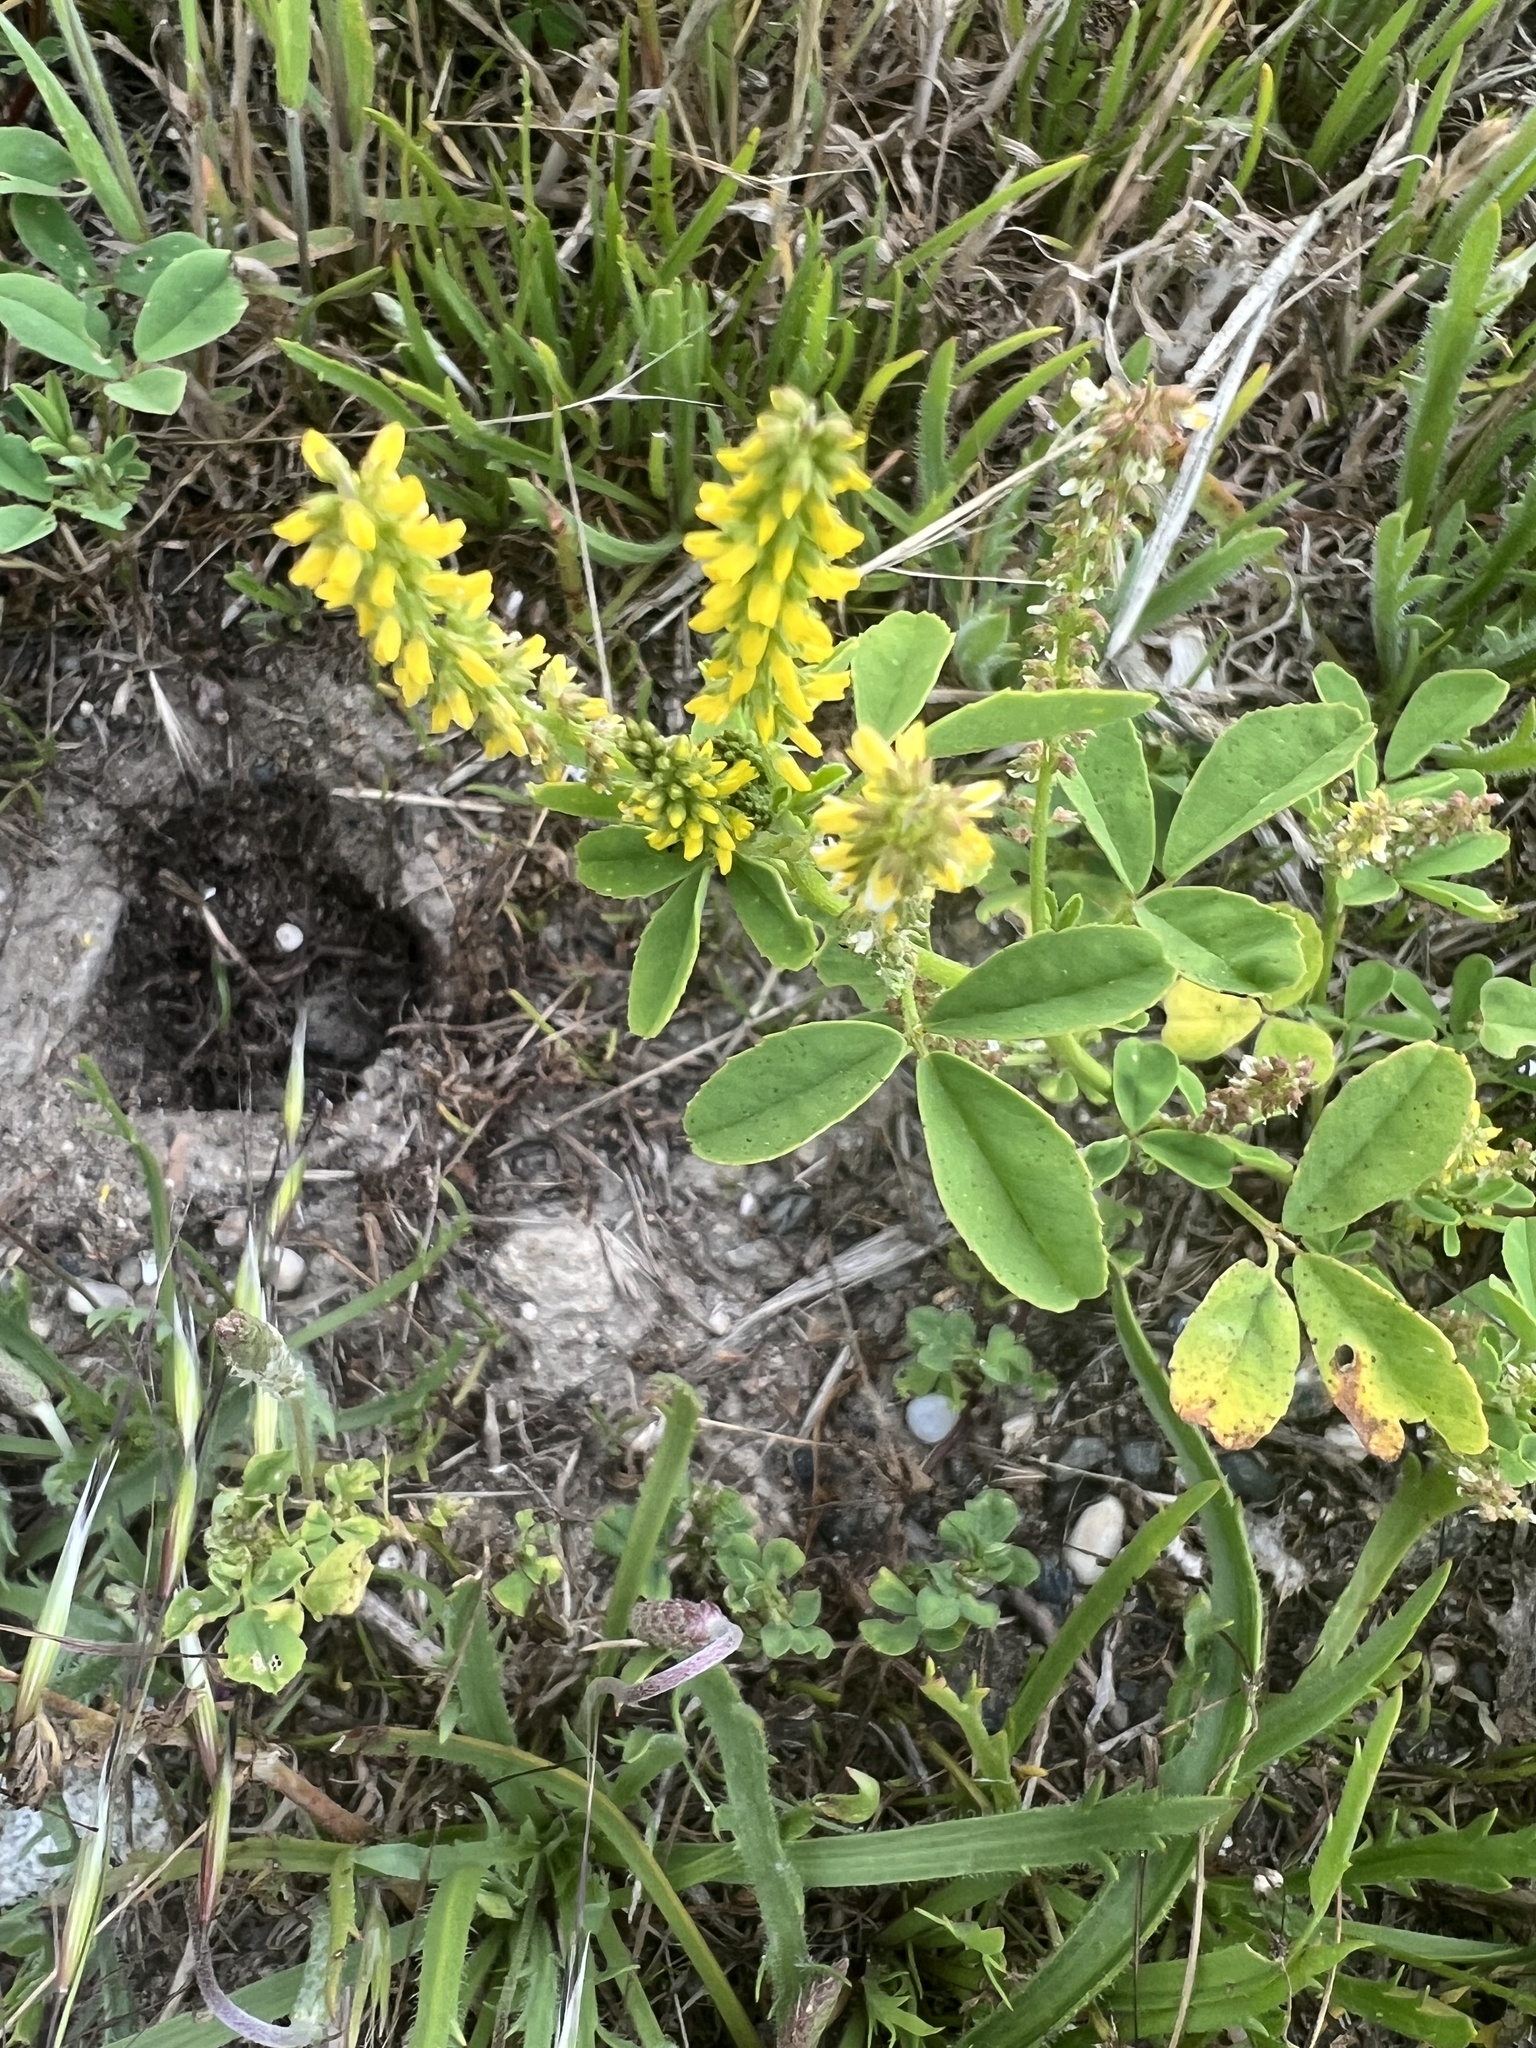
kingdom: Plantae
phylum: Tracheophyta
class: Magnoliopsida
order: Fabales
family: Fabaceae
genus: Melilotus
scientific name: Melilotus indicus
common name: Small melilot
